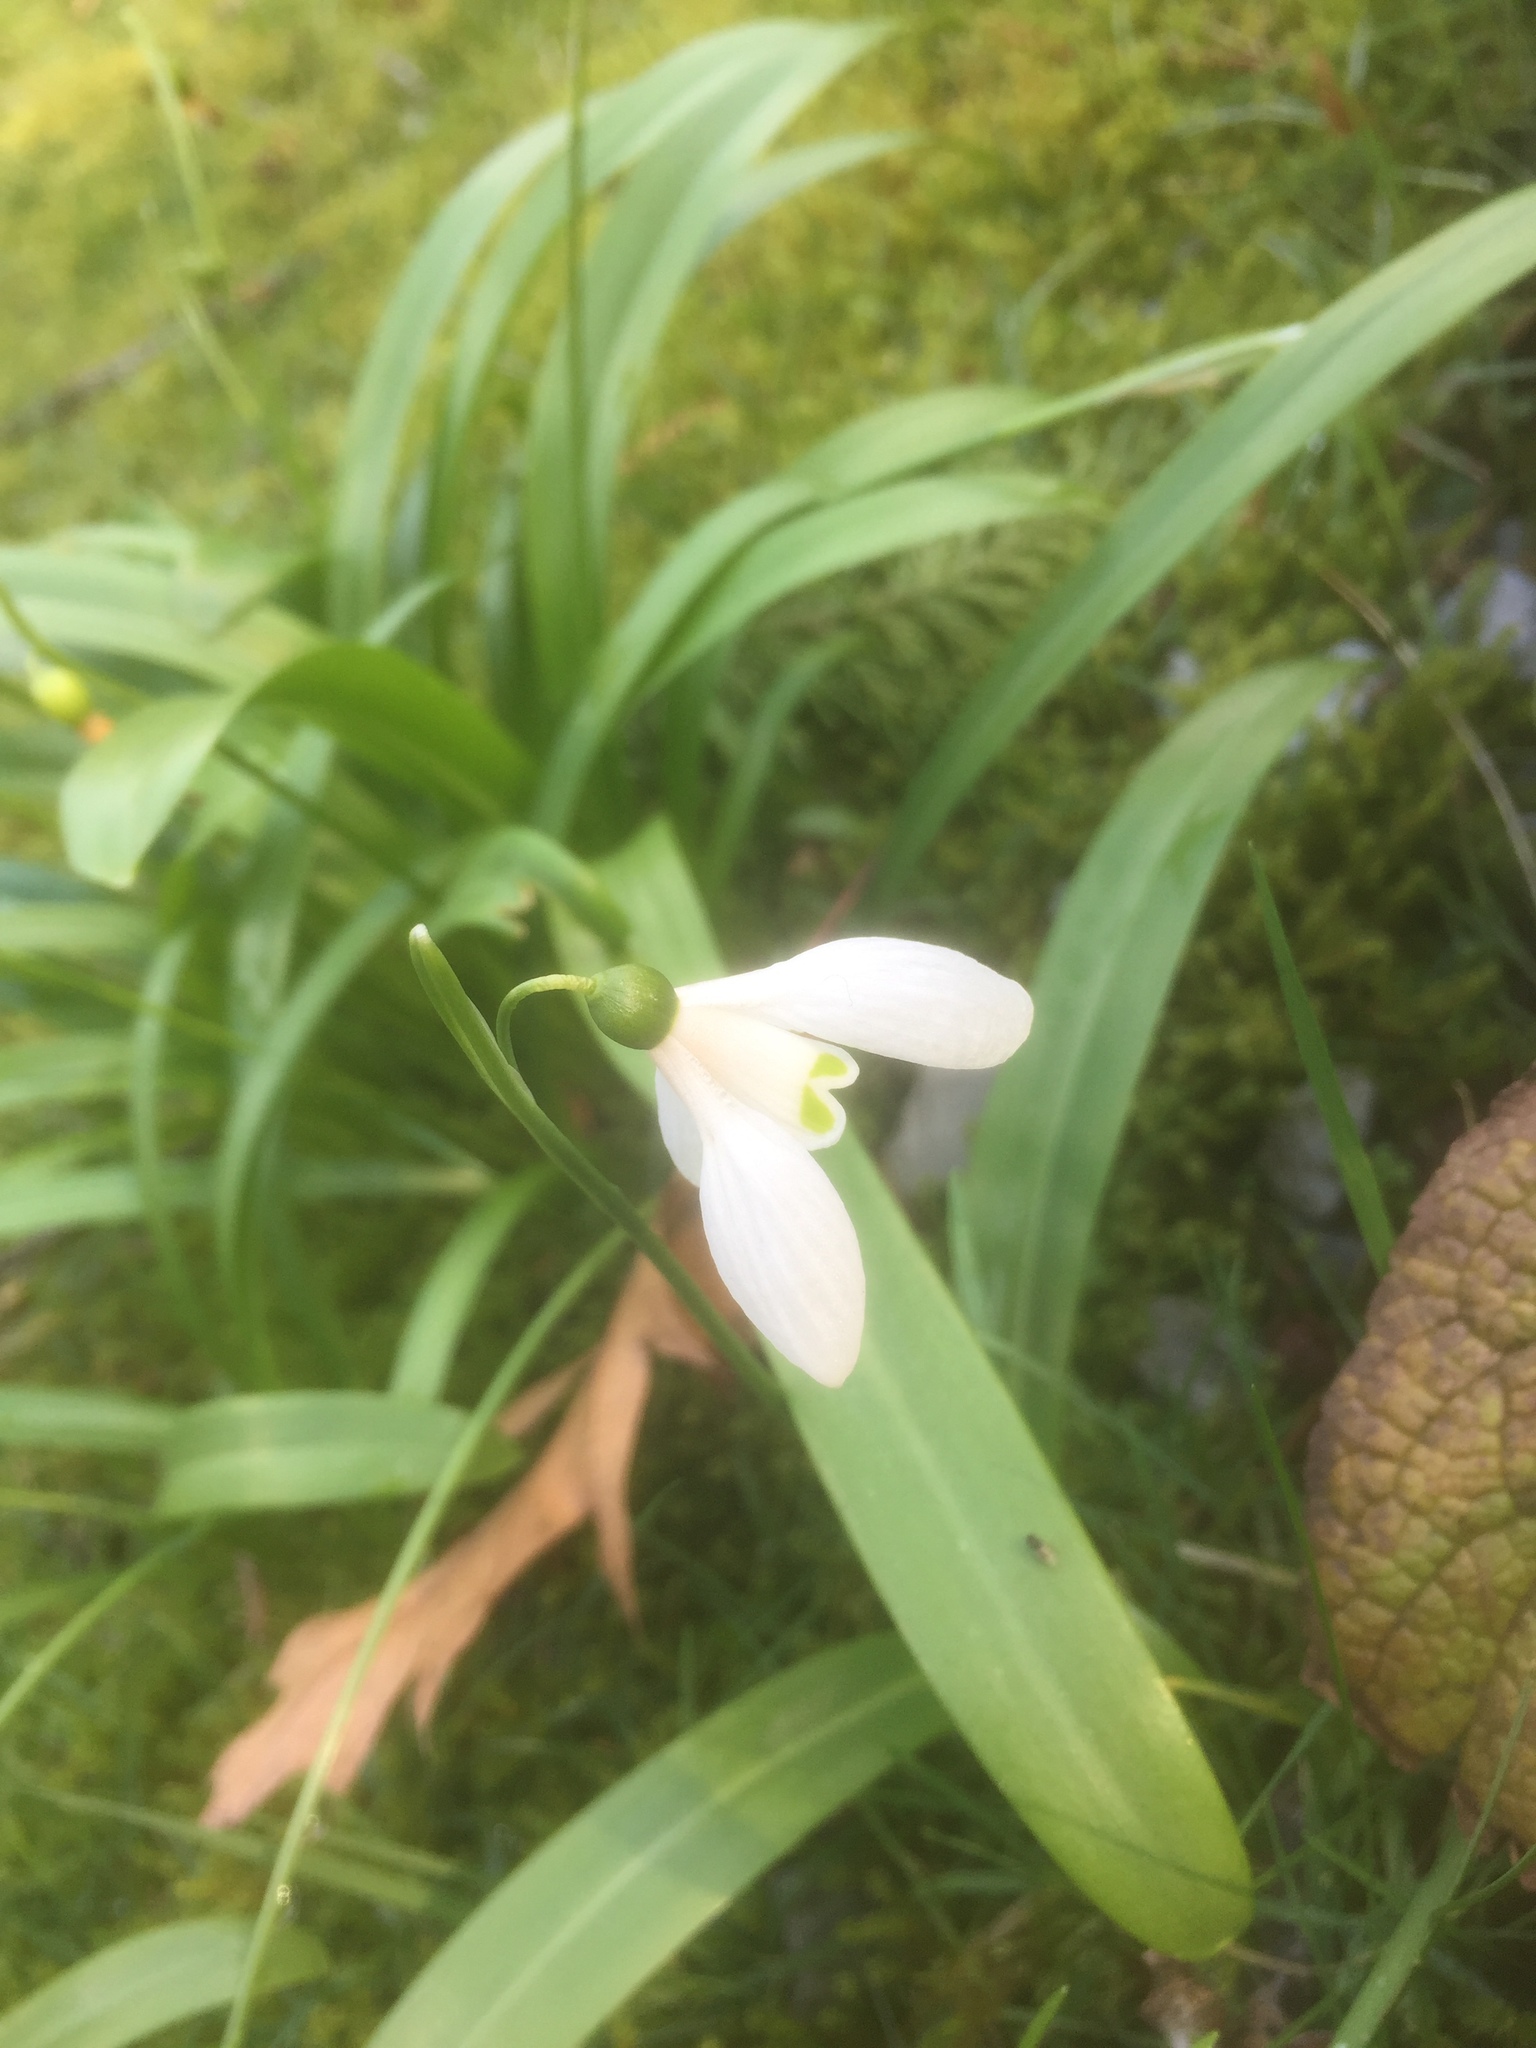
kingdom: Plantae
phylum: Tracheophyta
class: Liliopsida
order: Asparagales
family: Amaryllidaceae
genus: Galanthus
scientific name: Galanthus woronowii
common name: Green snowdrop
